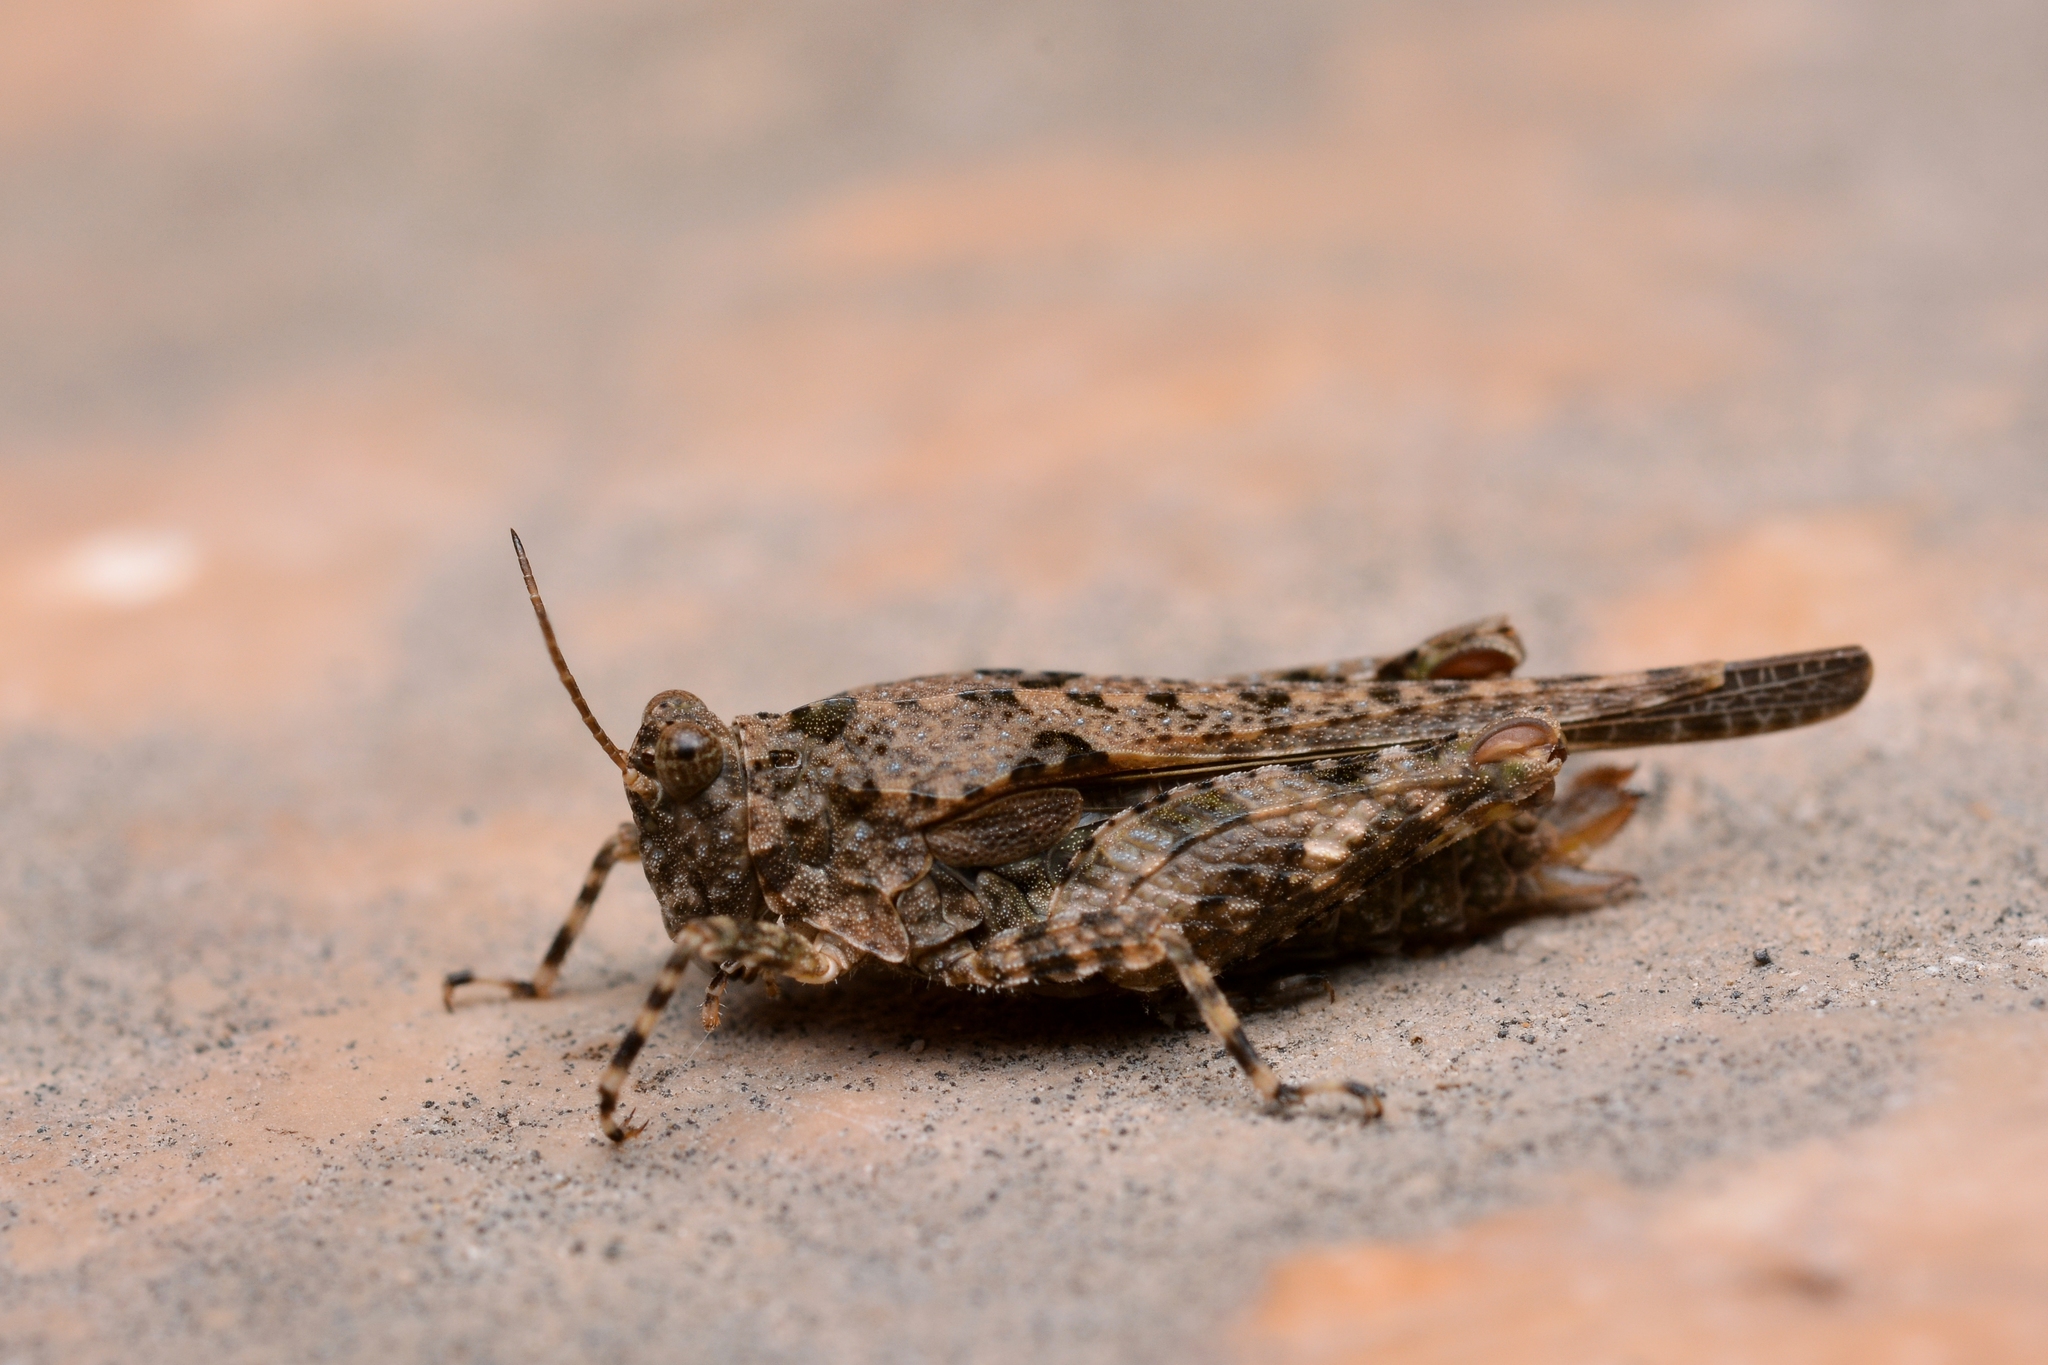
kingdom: Animalia
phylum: Arthropoda
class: Insecta
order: Orthoptera
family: Tetrigidae
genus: Paratettix
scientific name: Paratettix meridionalis
